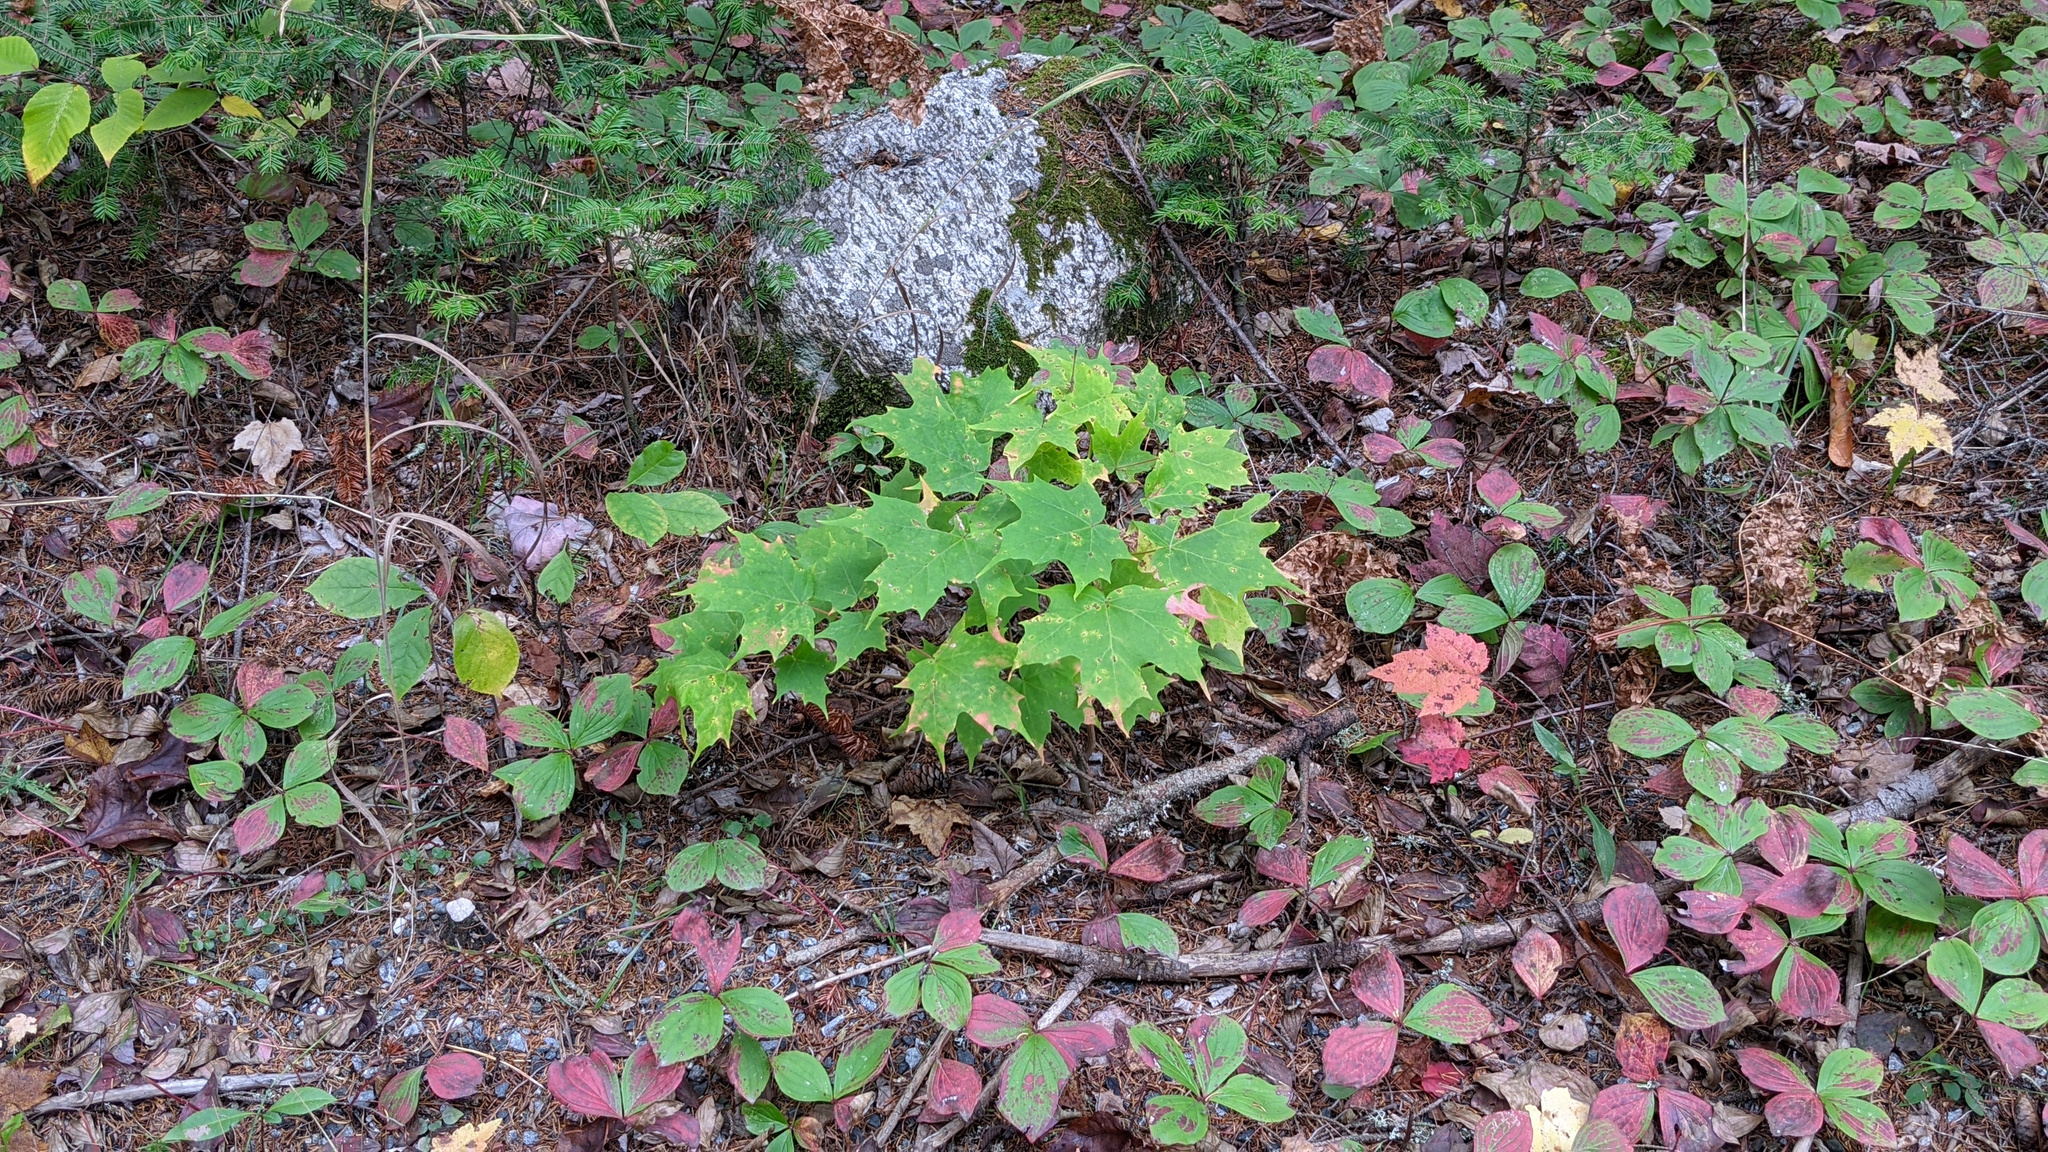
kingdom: Plantae
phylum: Tracheophyta
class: Magnoliopsida
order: Sapindales
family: Sapindaceae
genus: Acer
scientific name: Acer saccharum
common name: Sugar maple
